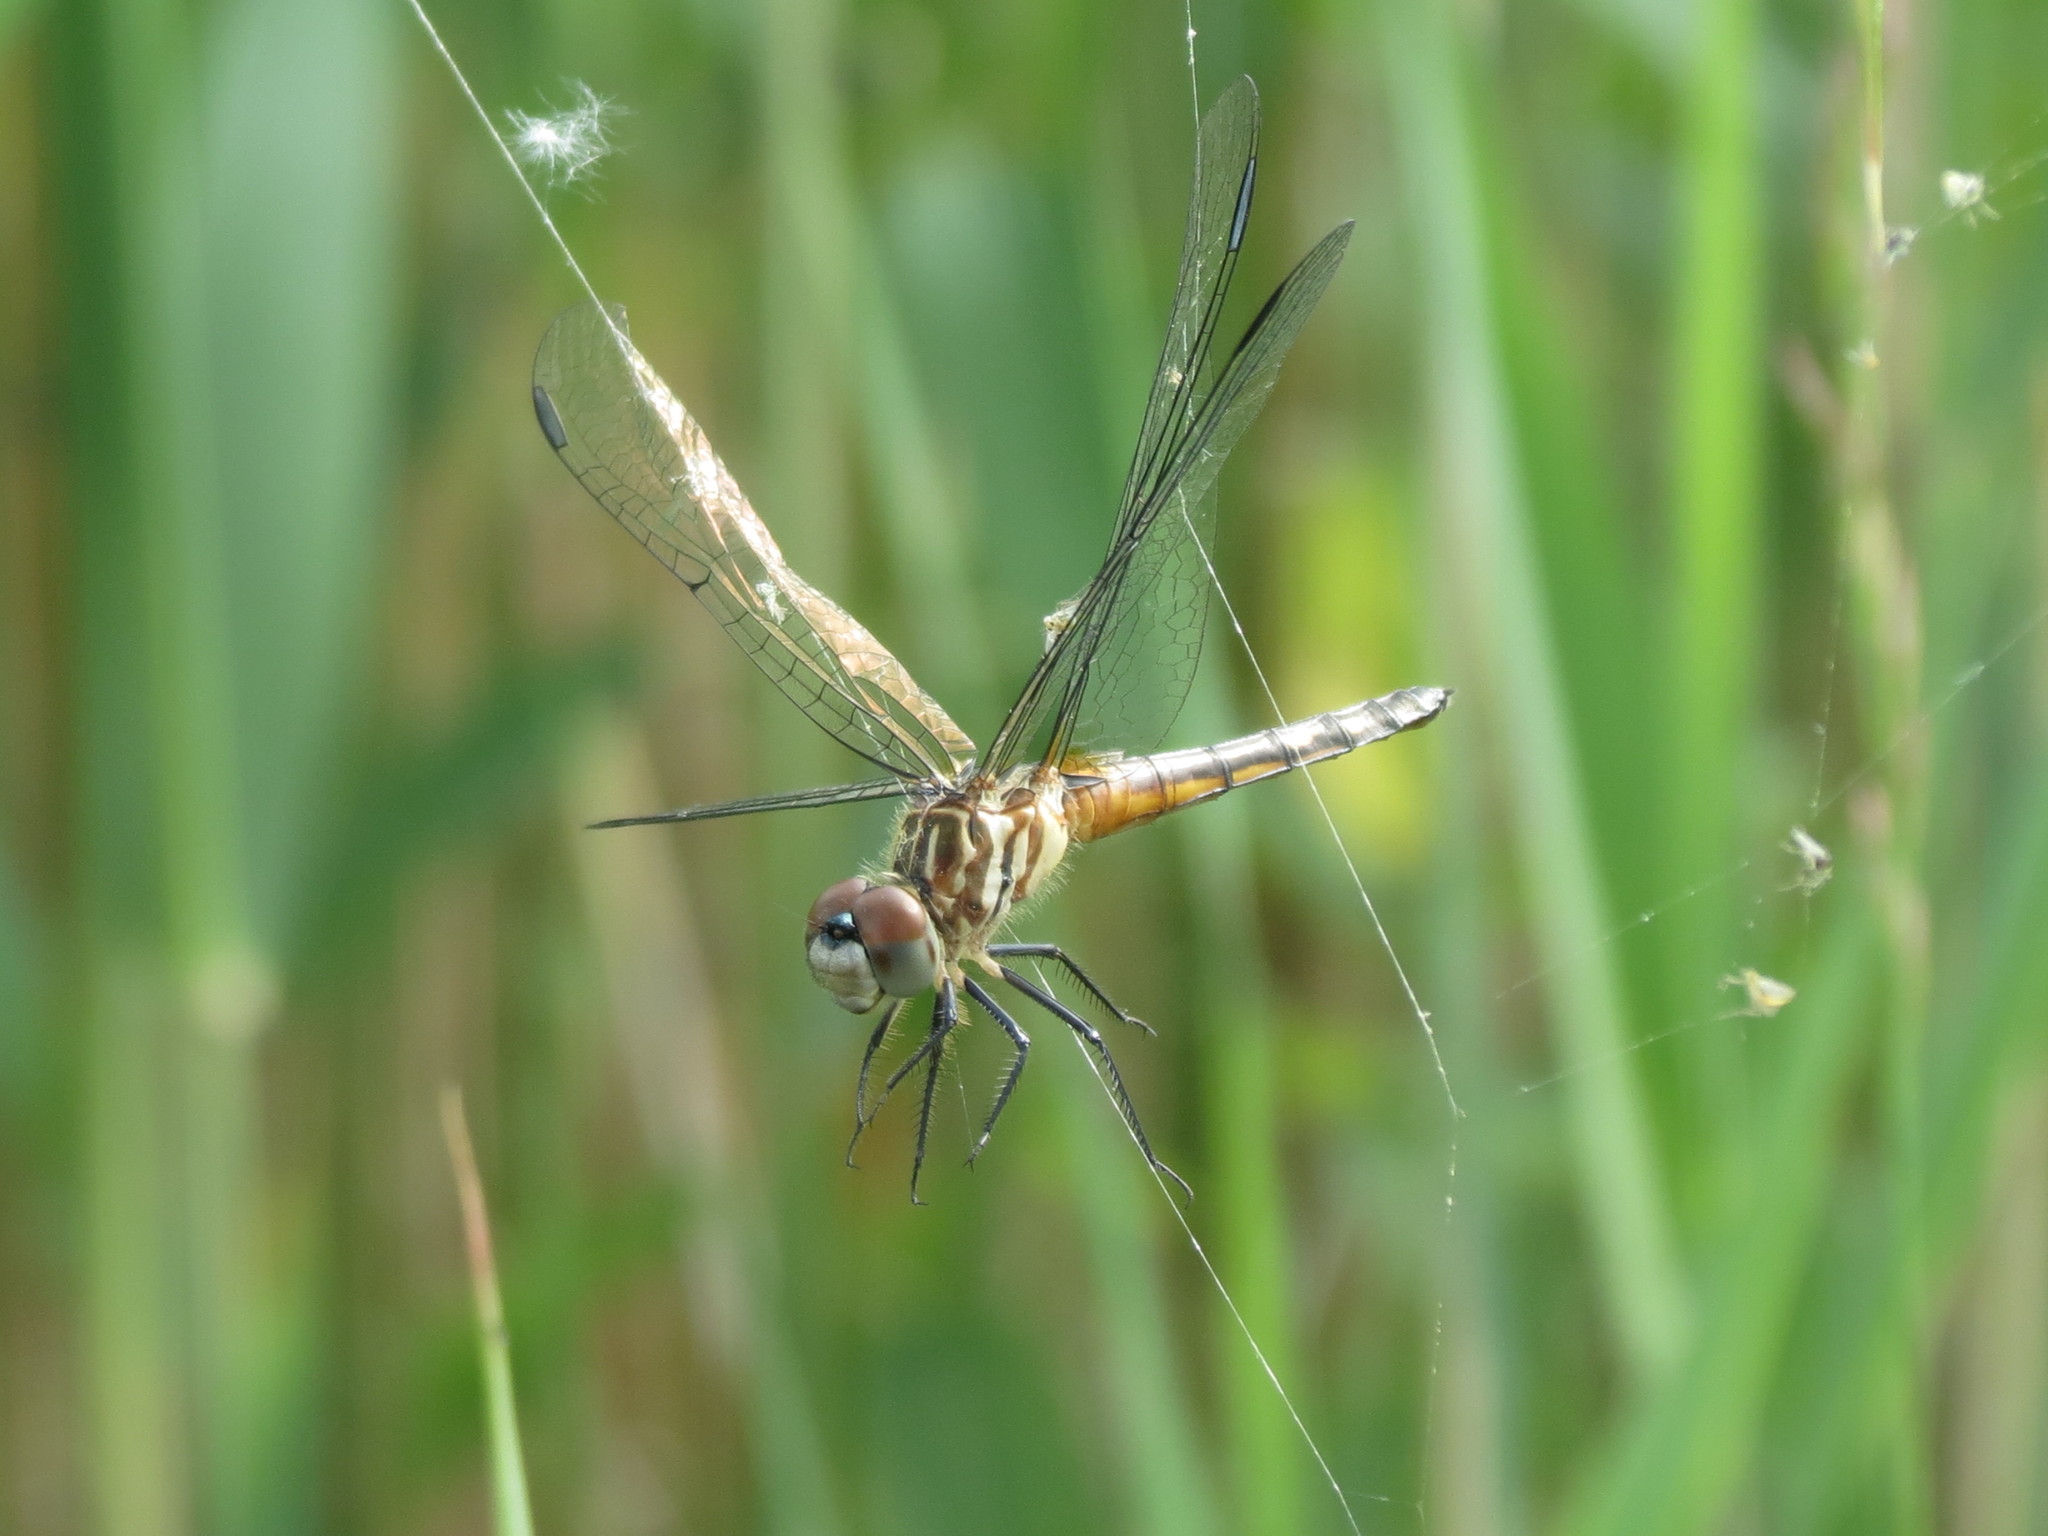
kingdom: Animalia
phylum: Arthropoda
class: Insecta
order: Odonata
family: Libellulidae
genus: Pachydiplax
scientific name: Pachydiplax longipennis
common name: Blue dasher
